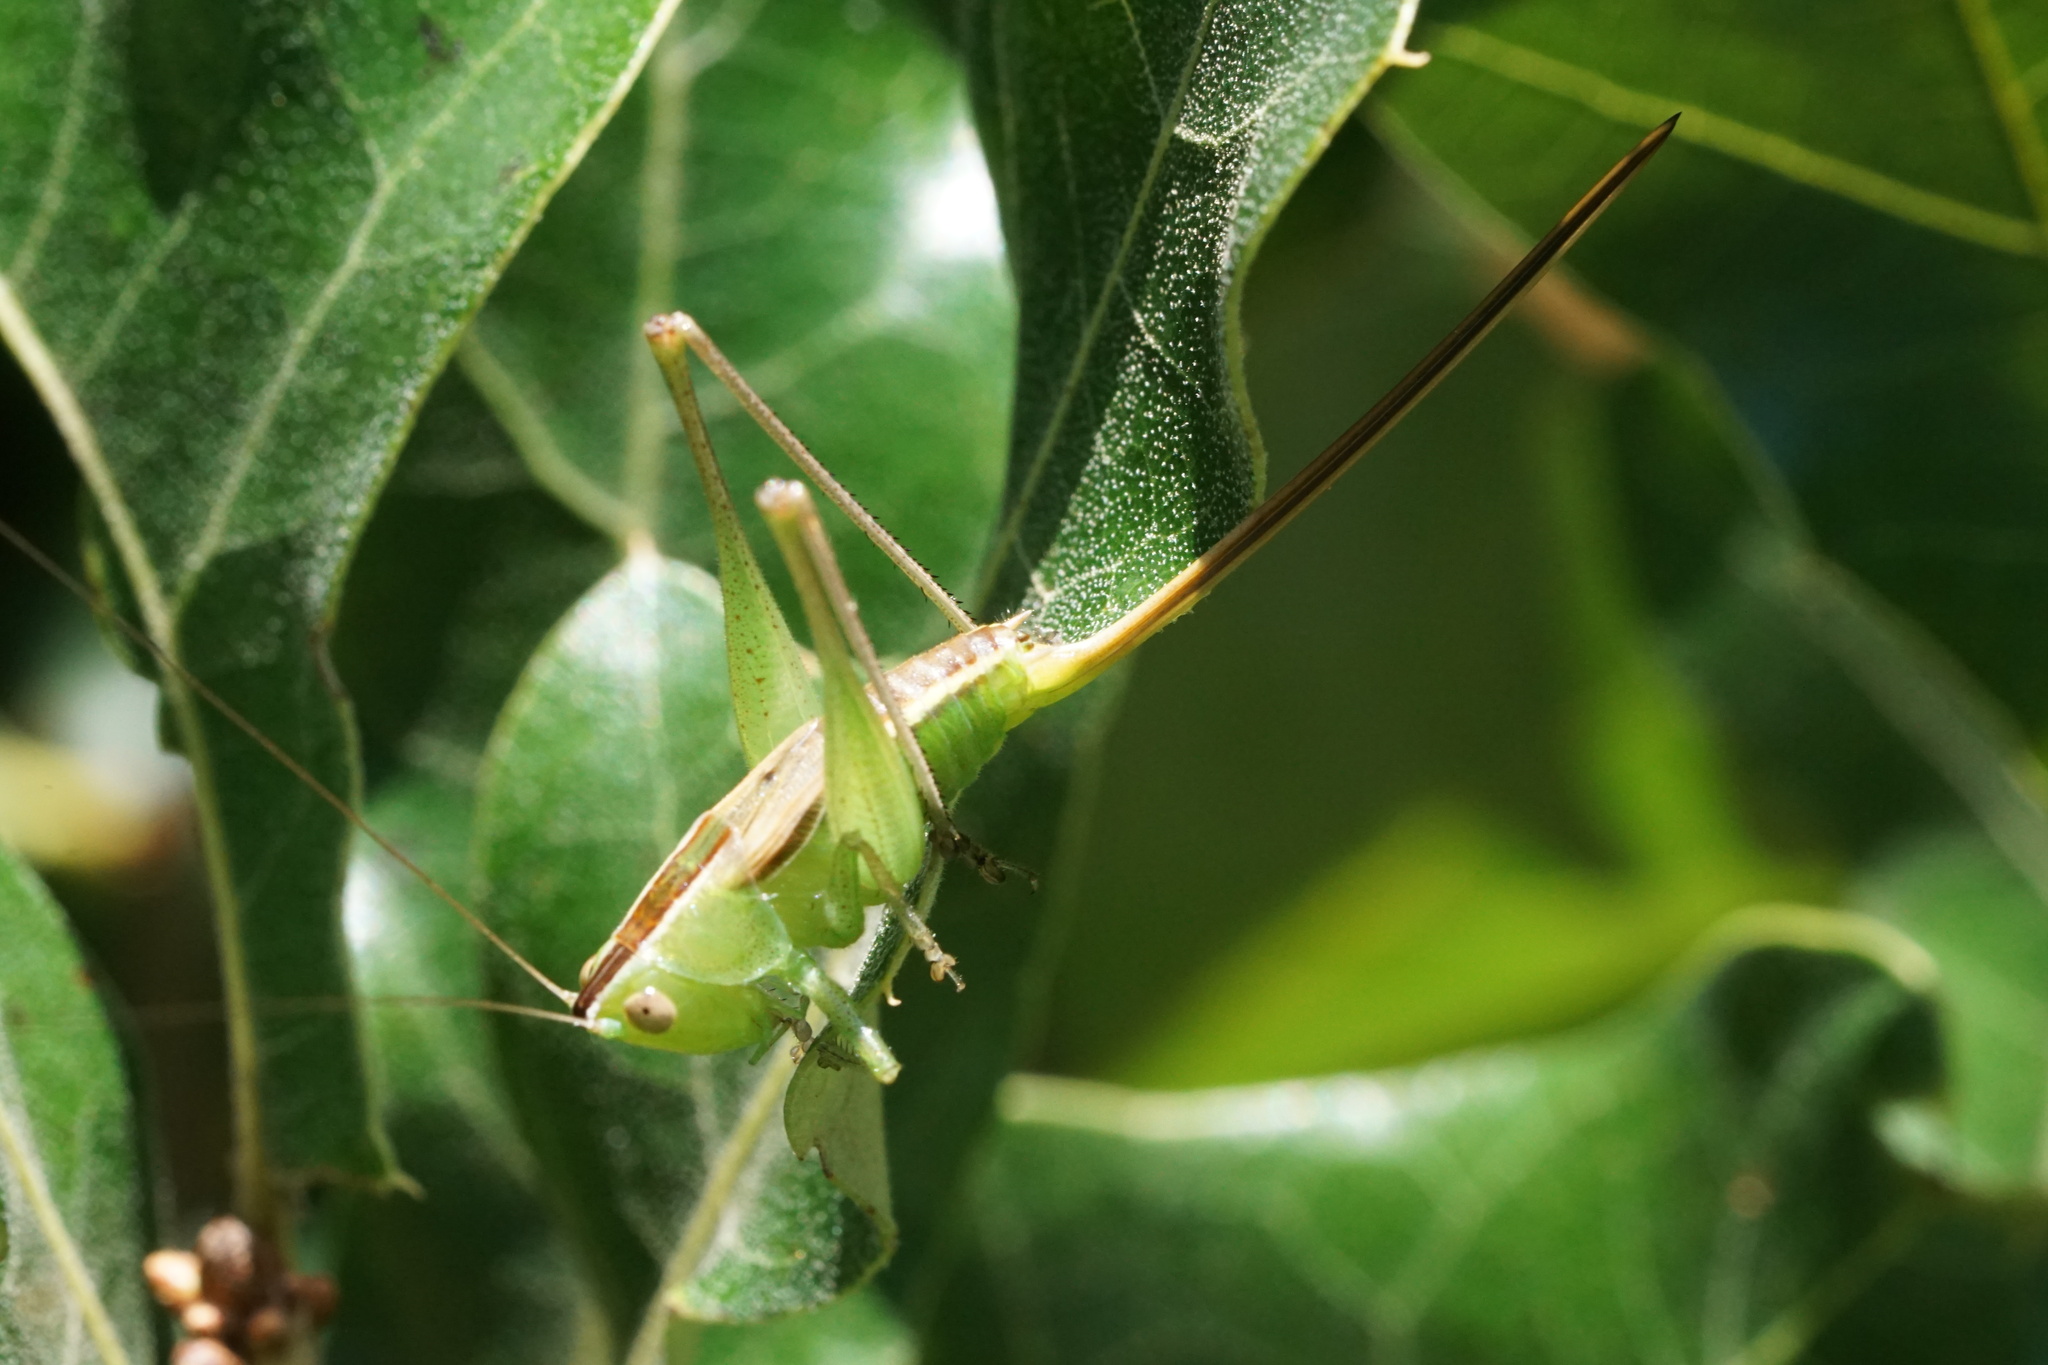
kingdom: Animalia
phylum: Arthropoda
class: Insecta
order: Orthoptera
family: Tettigoniidae
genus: Conocephalus
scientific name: Conocephalus strictus
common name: Straight-lanced katydid
